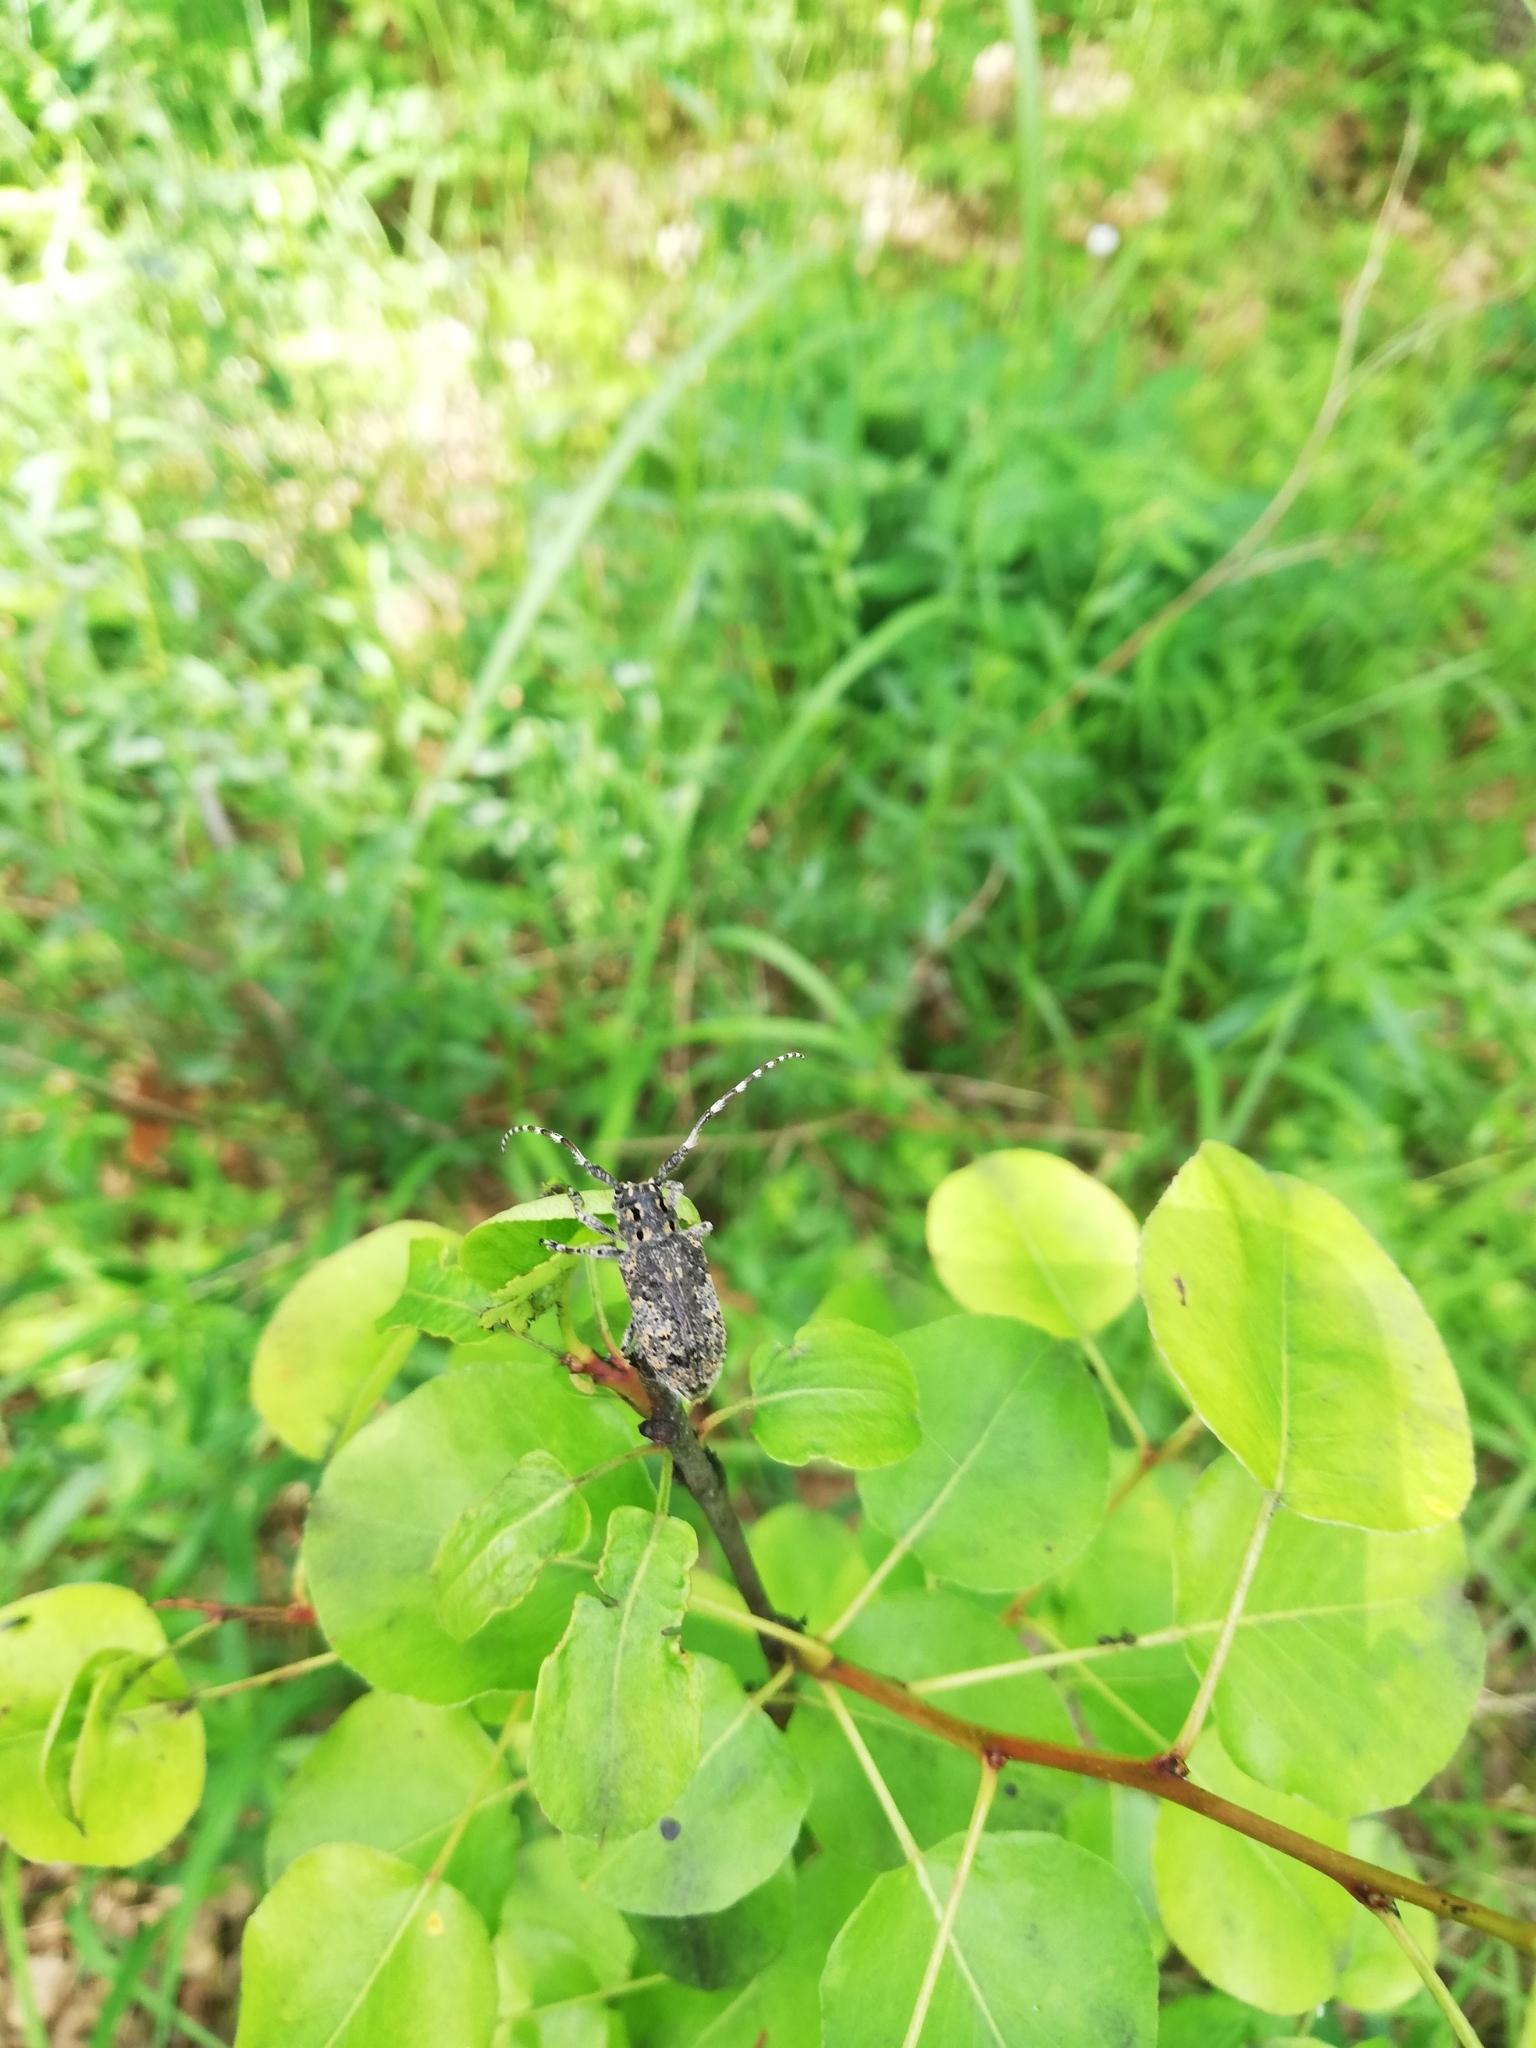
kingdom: Animalia
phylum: Arthropoda
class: Insecta
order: Coleoptera
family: Cerambycidae
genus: Mesosa
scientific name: Mesosa myops
